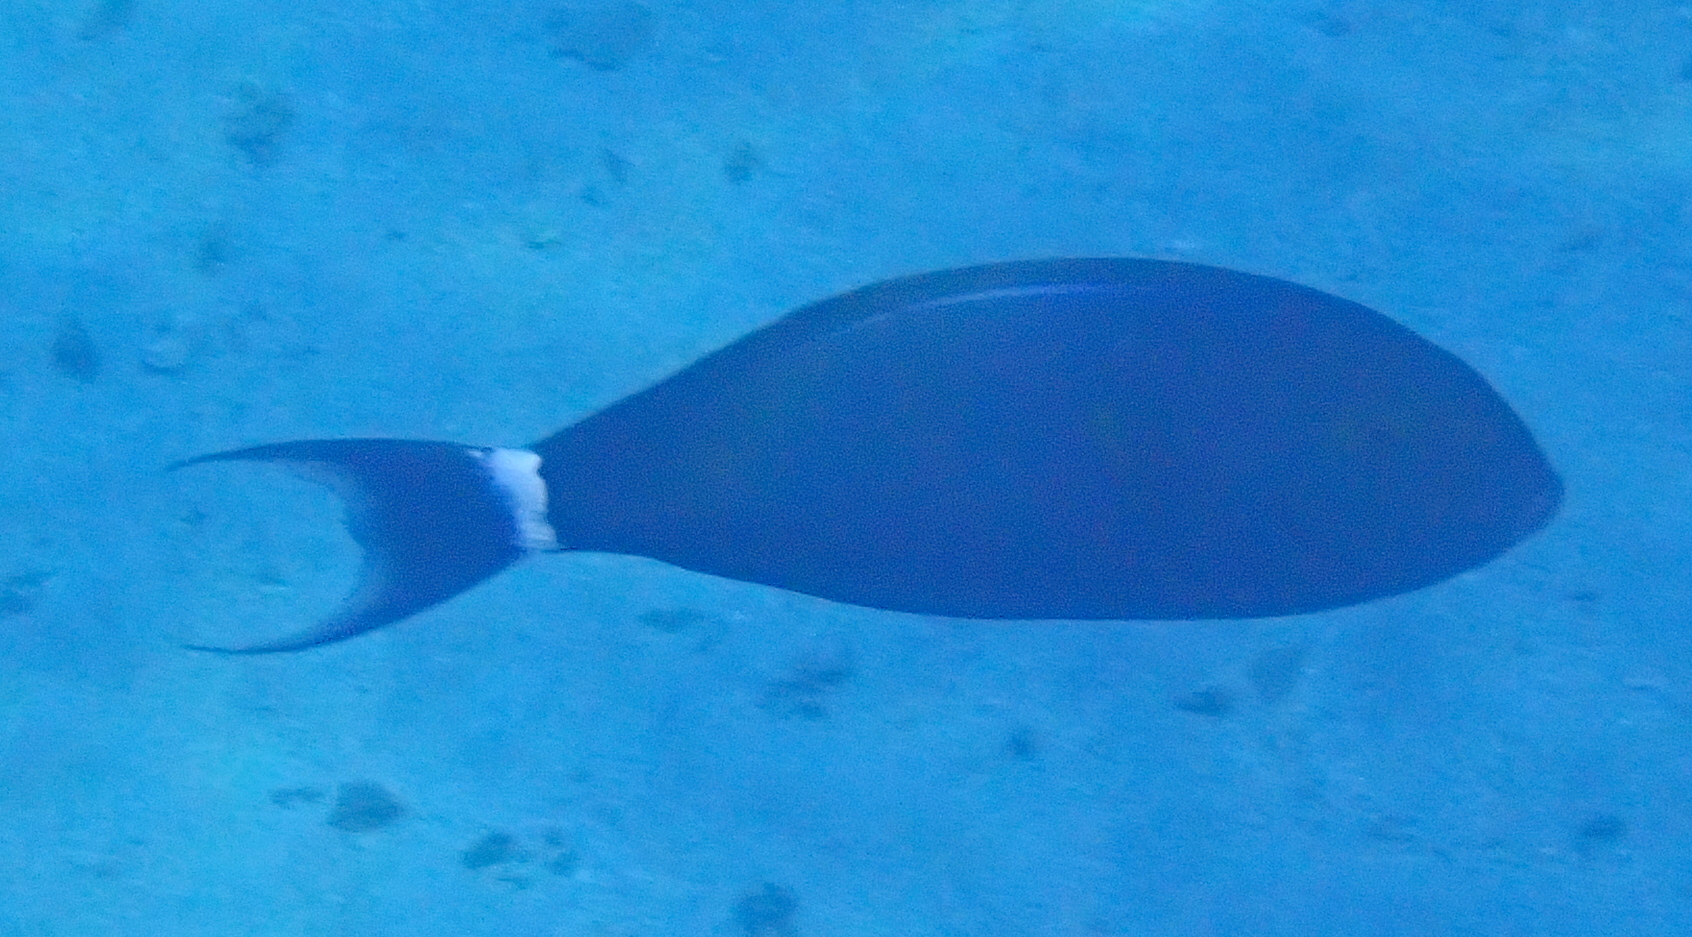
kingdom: Animalia
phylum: Chordata
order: Perciformes
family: Acanthuridae
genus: Acanthurus
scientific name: Acanthurus gahhm
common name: Black surgeonfish
